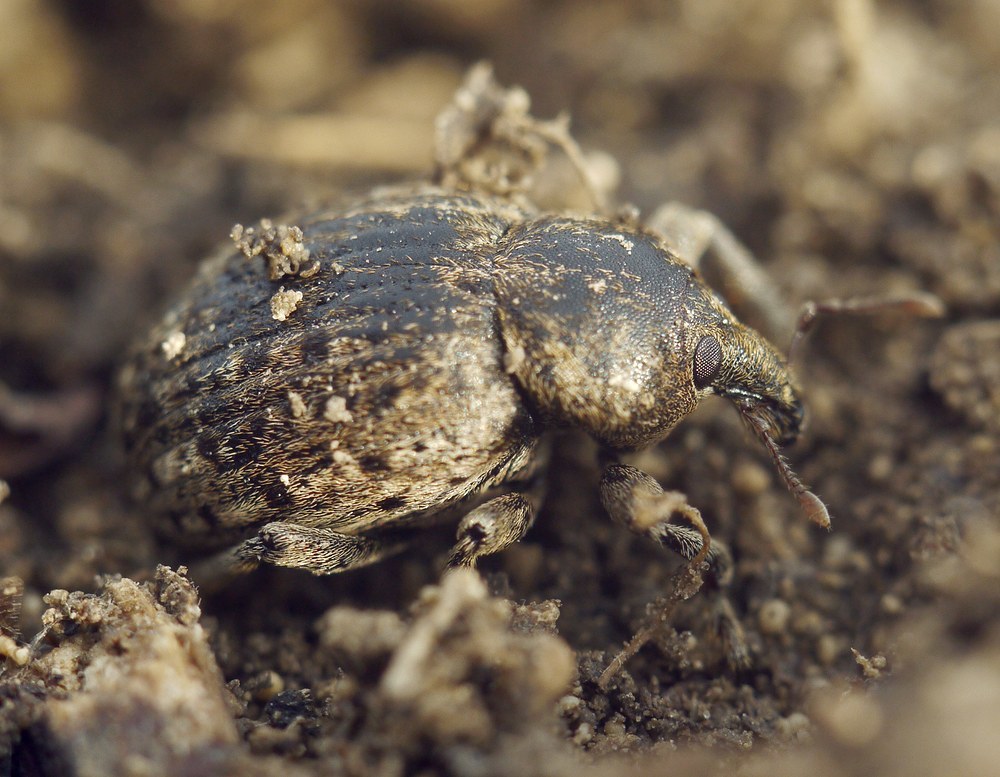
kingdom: Animalia
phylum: Arthropoda
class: Insecta
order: Coleoptera
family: Curculionidae
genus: Hypera
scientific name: Hypera spissa
